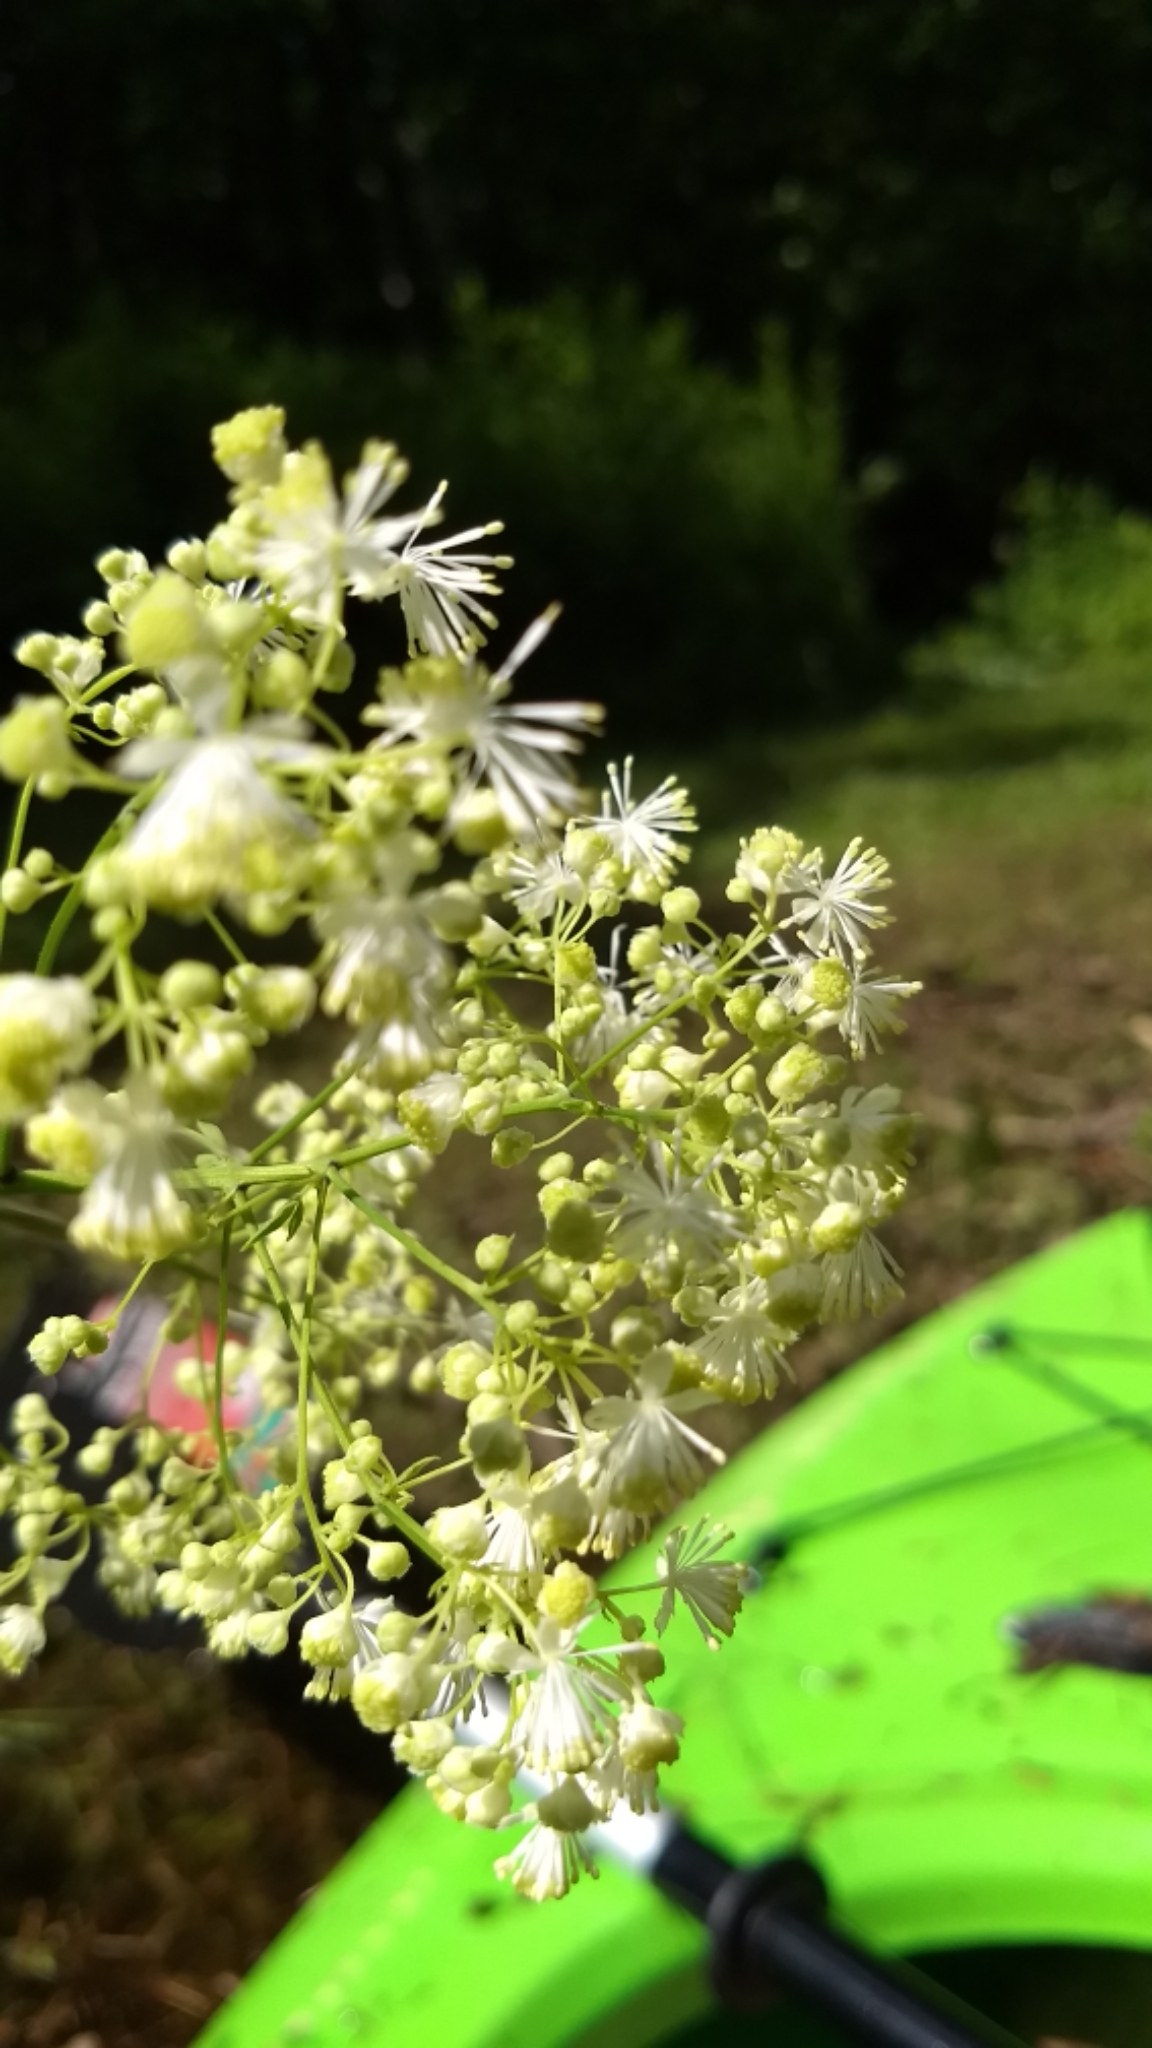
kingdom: Plantae
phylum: Tracheophyta
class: Magnoliopsida
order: Ranunculales
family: Ranunculaceae
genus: Thalictrum
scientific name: Thalictrum pubescens
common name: King-of-the-meadow
